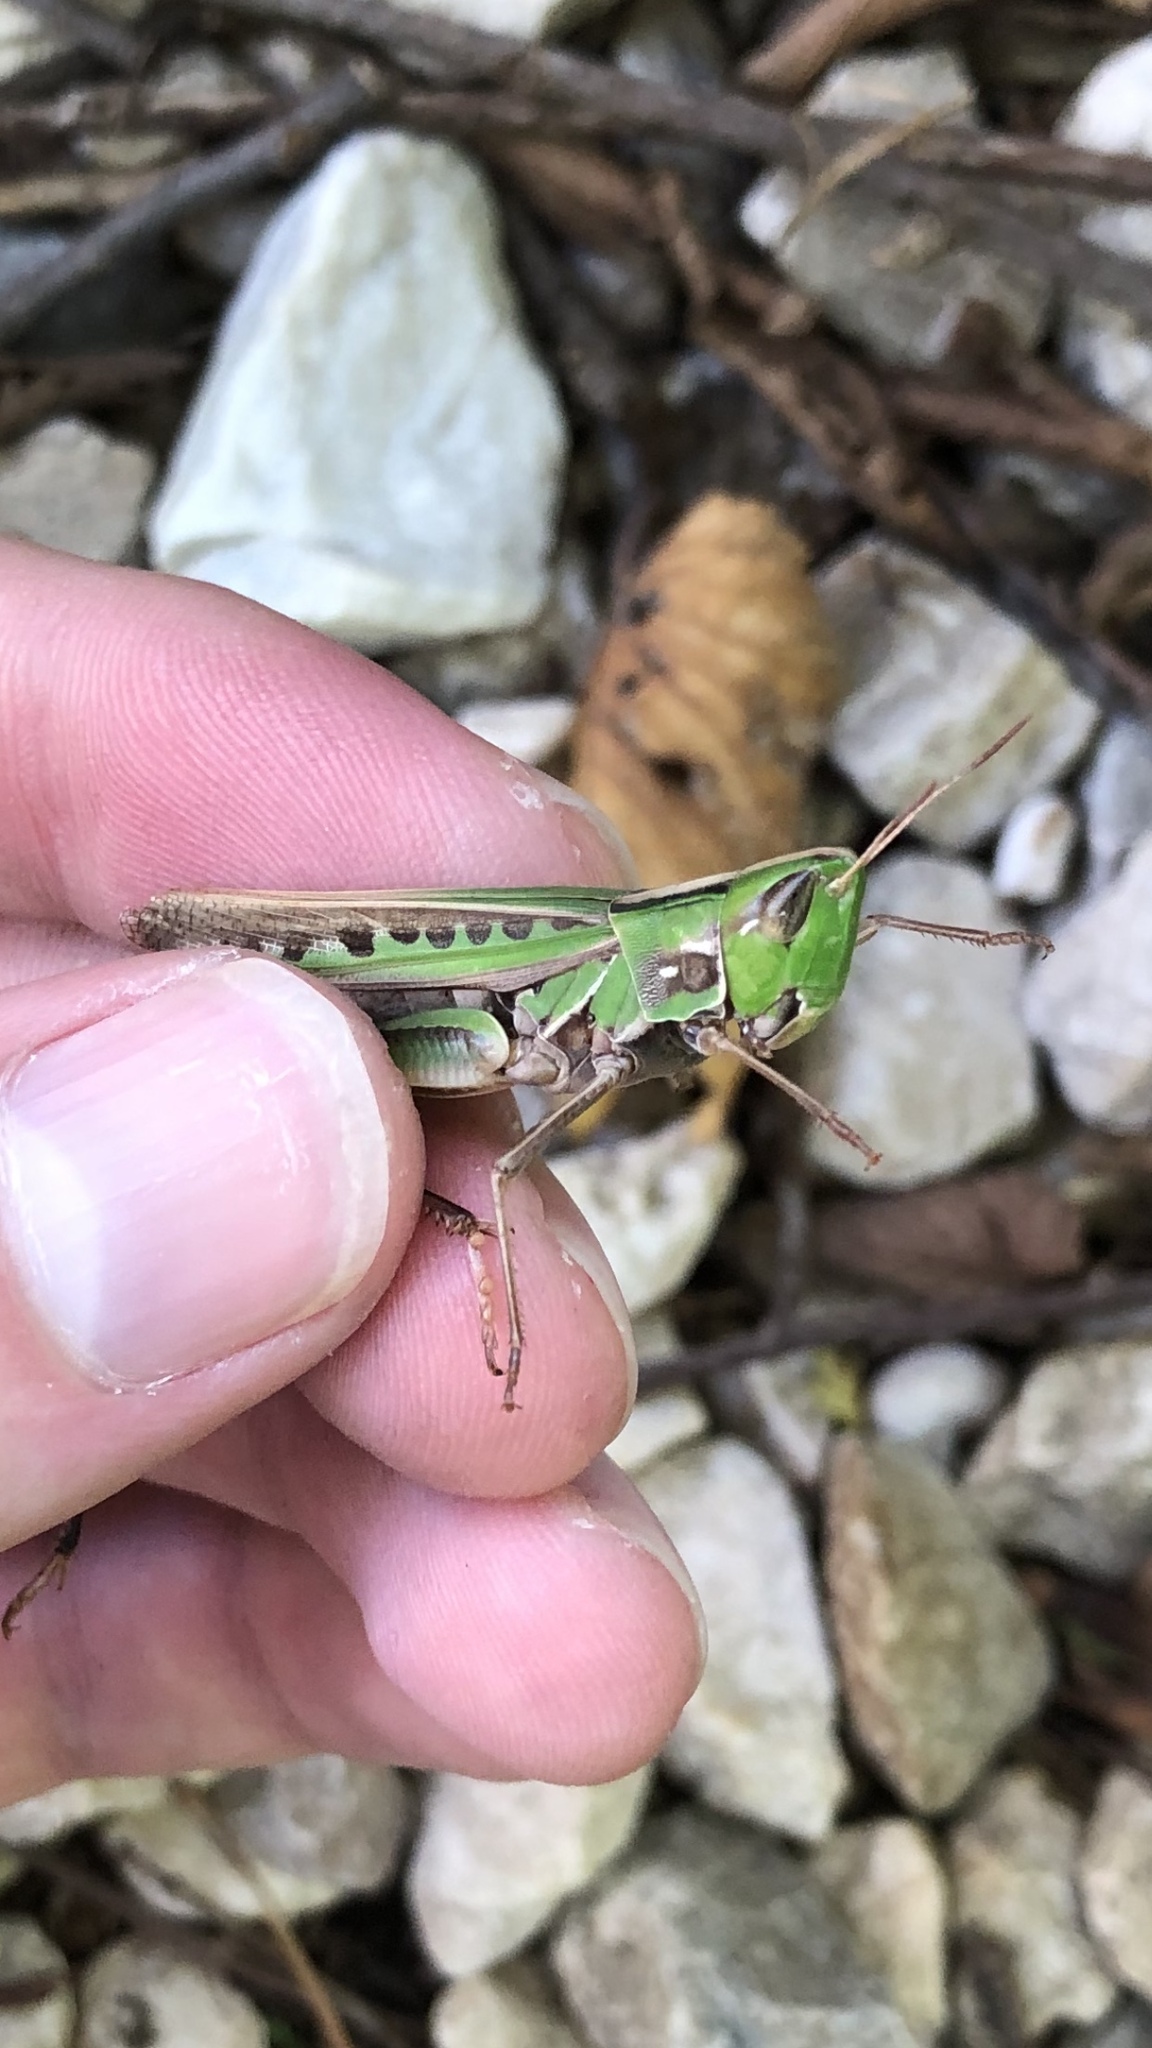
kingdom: Animalia
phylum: Arthropoda
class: Insecta
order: Orthoptera
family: Acrididae
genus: Syrbula
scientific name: Syrbula admirabilis
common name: Handsome grasshopper
